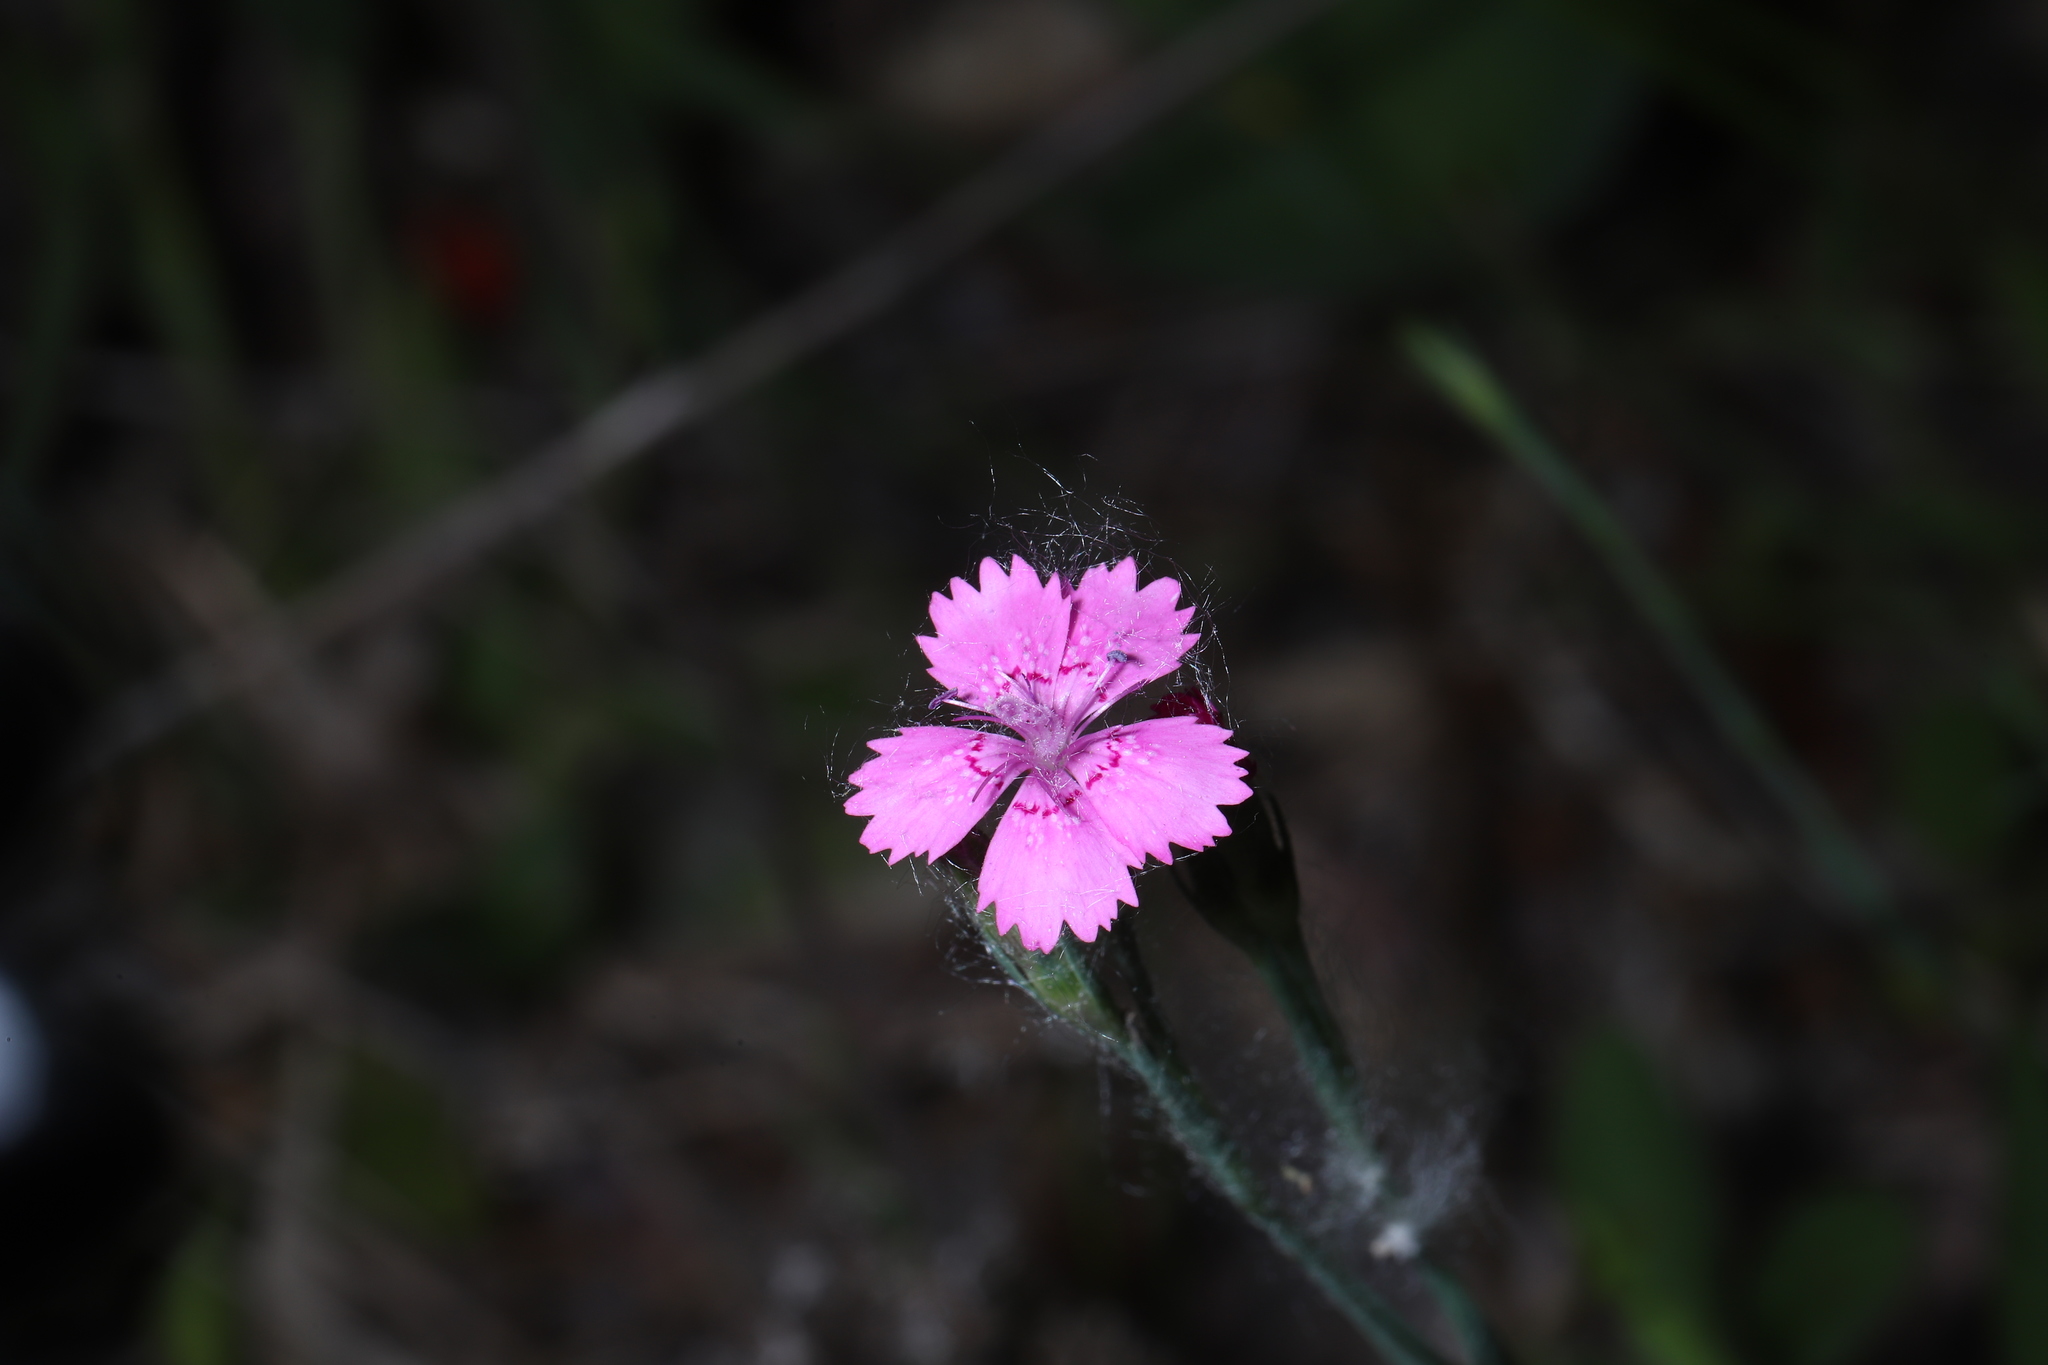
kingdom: Plantae
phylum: Tracheophyta
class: Magnoliopsida
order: Caryophyllales
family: Caryophyllaceae
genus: Dianthus
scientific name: Dianthus deltoides
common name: Maiden pink
